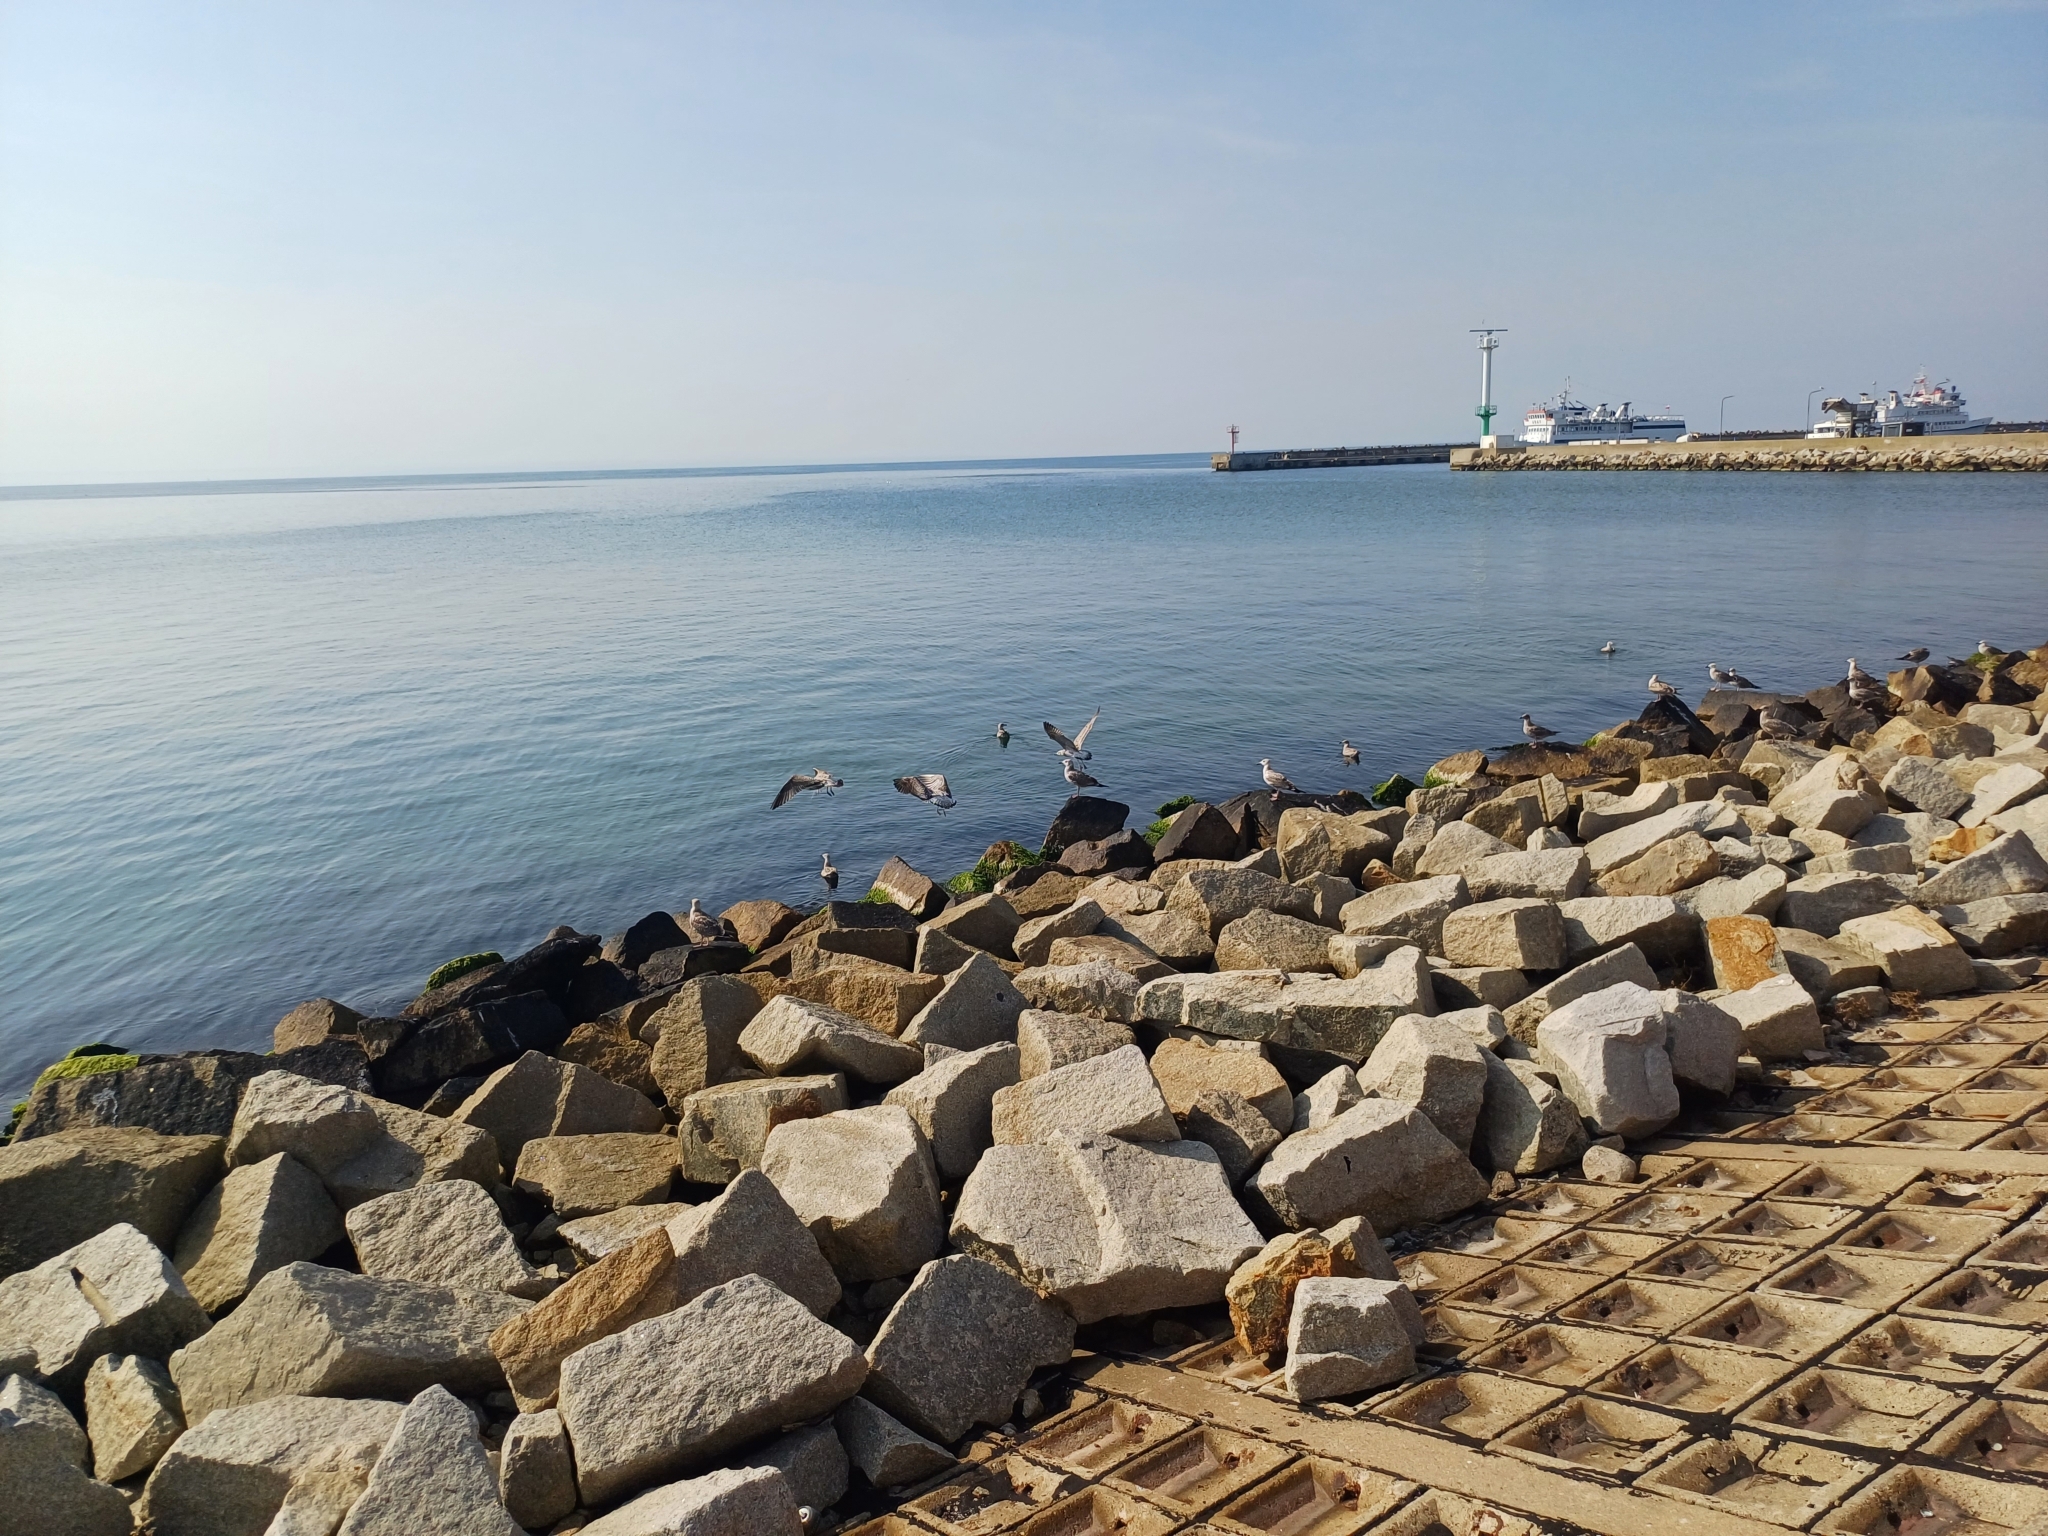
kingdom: Animalia
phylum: Chordata
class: Aves
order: Charadriiformes
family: Laridae
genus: Larus
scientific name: Larus argentatus
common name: Herring gull
